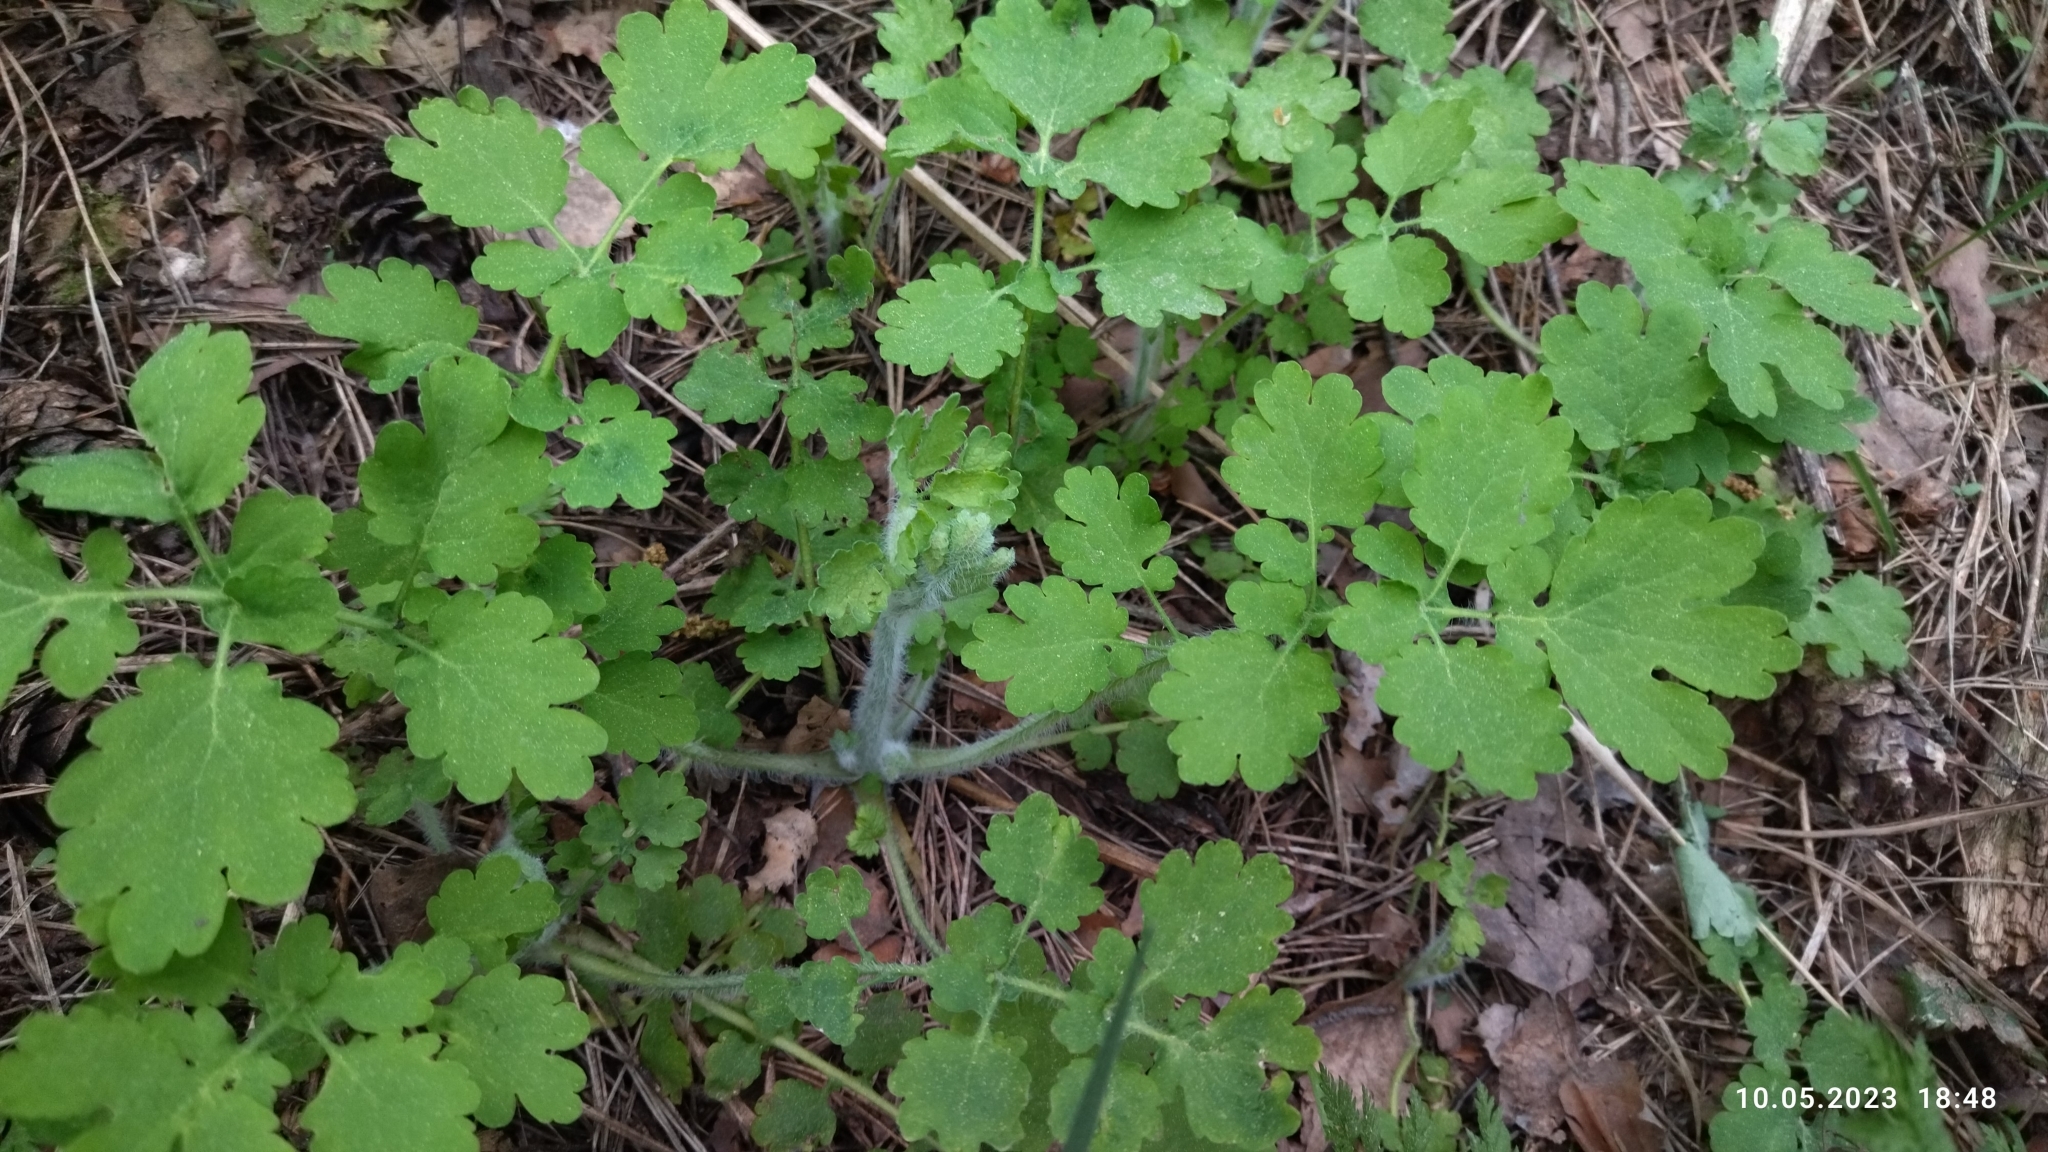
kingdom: Plantae
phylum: Tracheophyta
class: Magnoliopsida
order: Ranunculales
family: Papaveraceae
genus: Chelidonium
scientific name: Chelidonium majus
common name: Greater celandine
